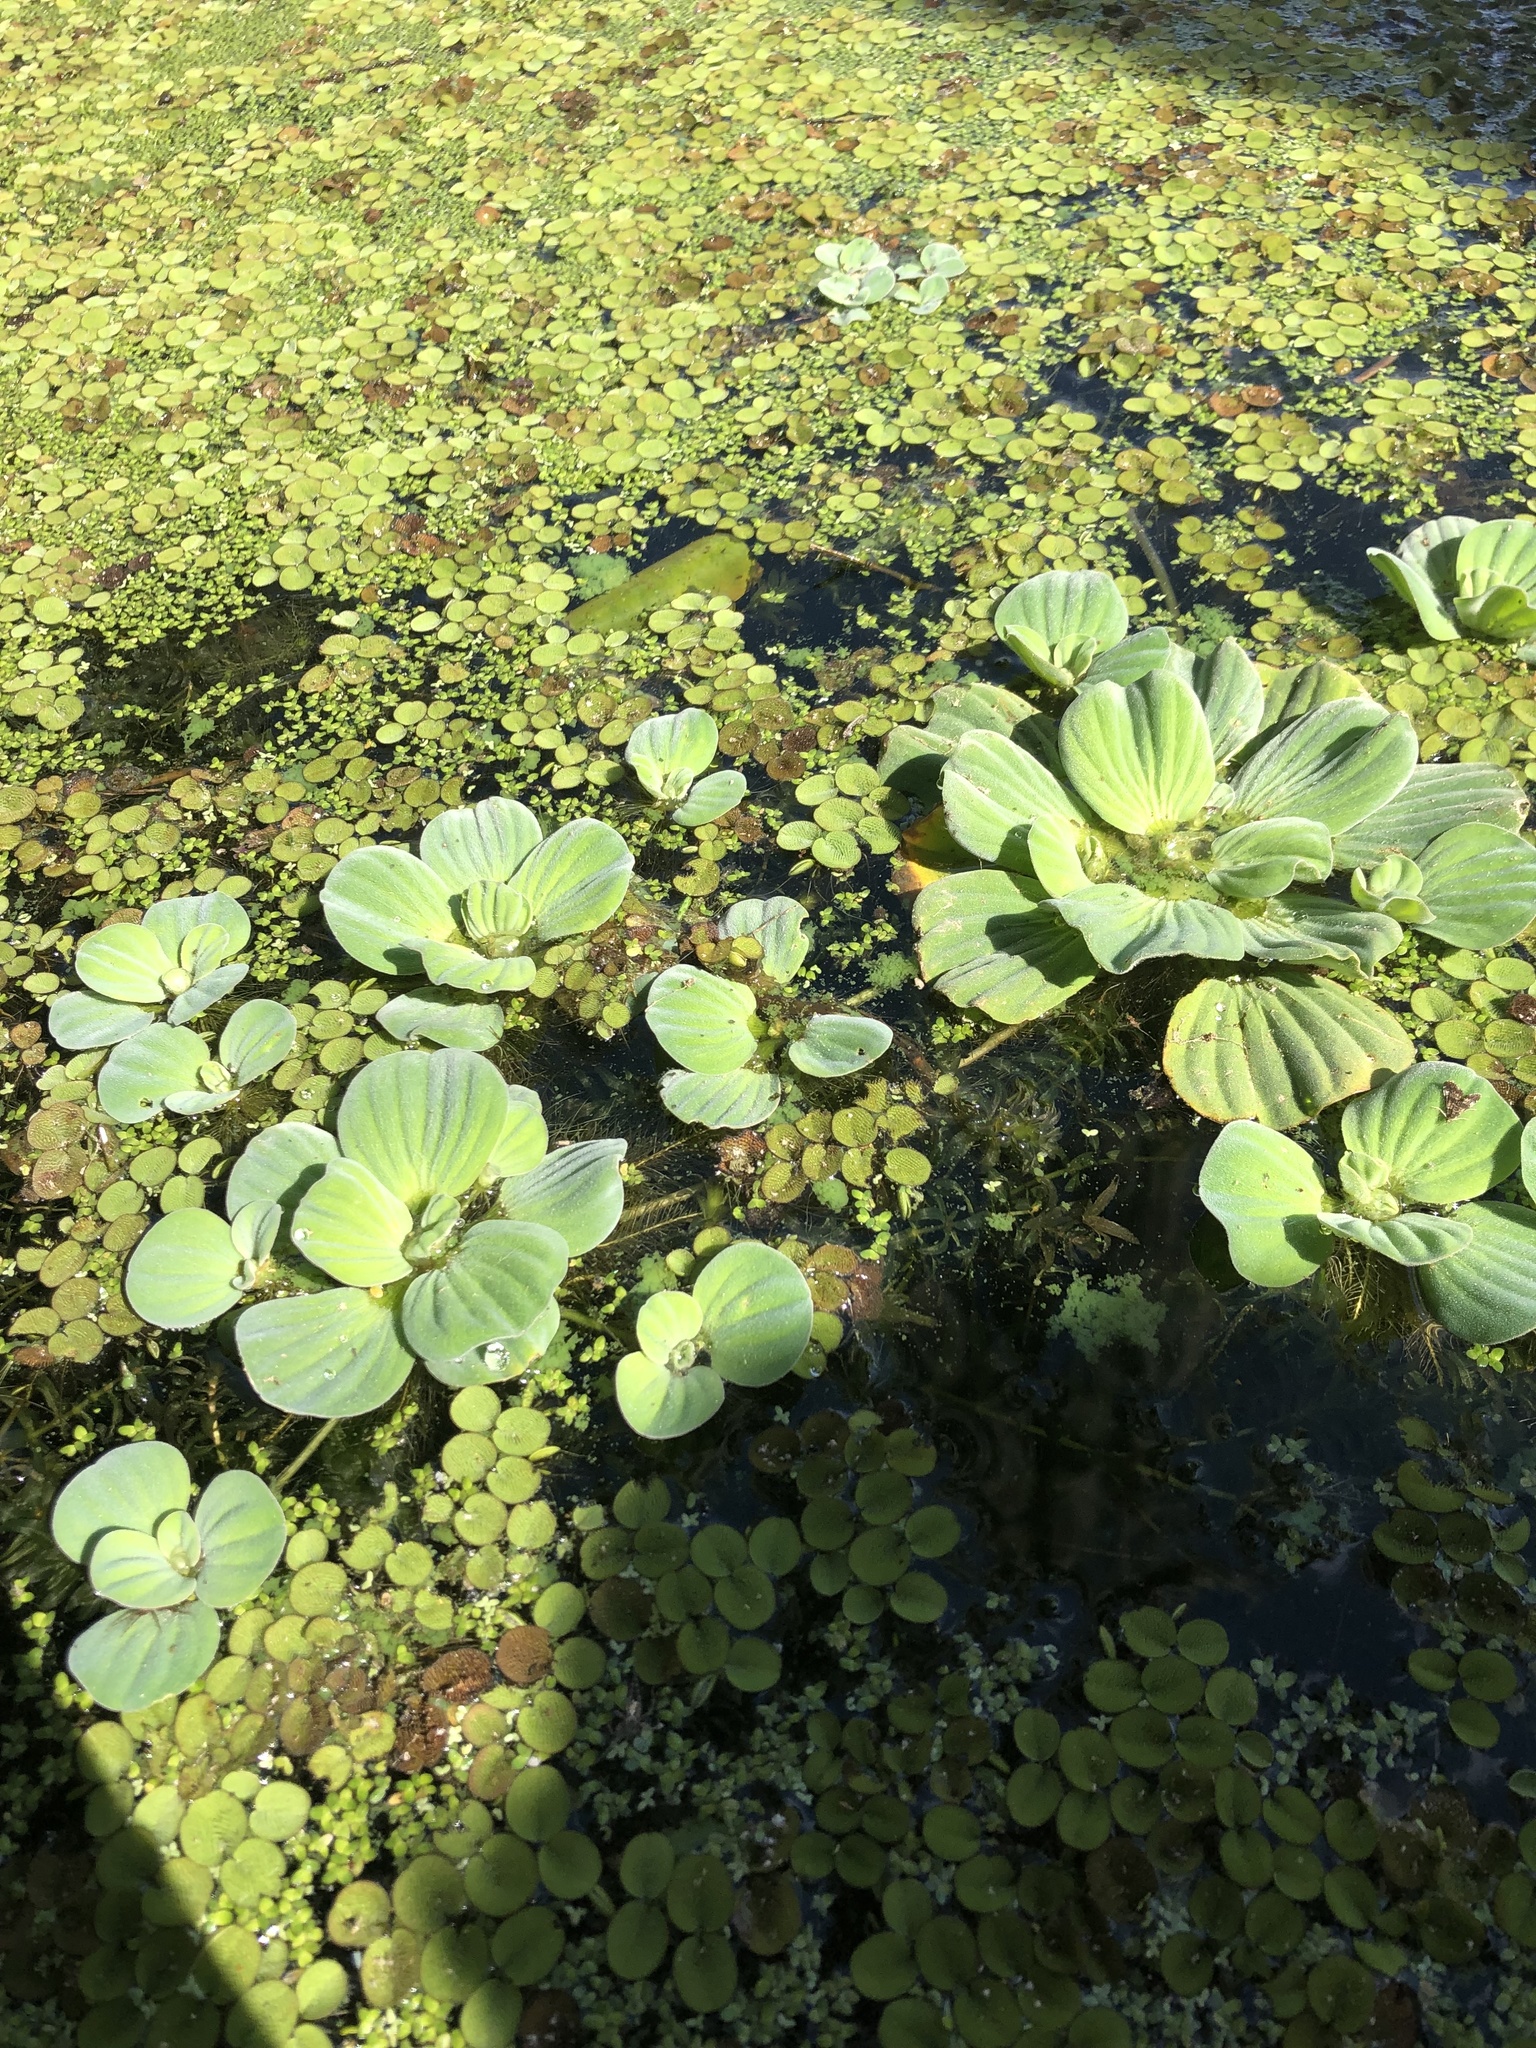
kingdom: Plantae
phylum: Tracheophyta
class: Liliopsida
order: Alismatales
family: Araceae
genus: Pistia
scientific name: Pistia stratiotes
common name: Water lettuce
